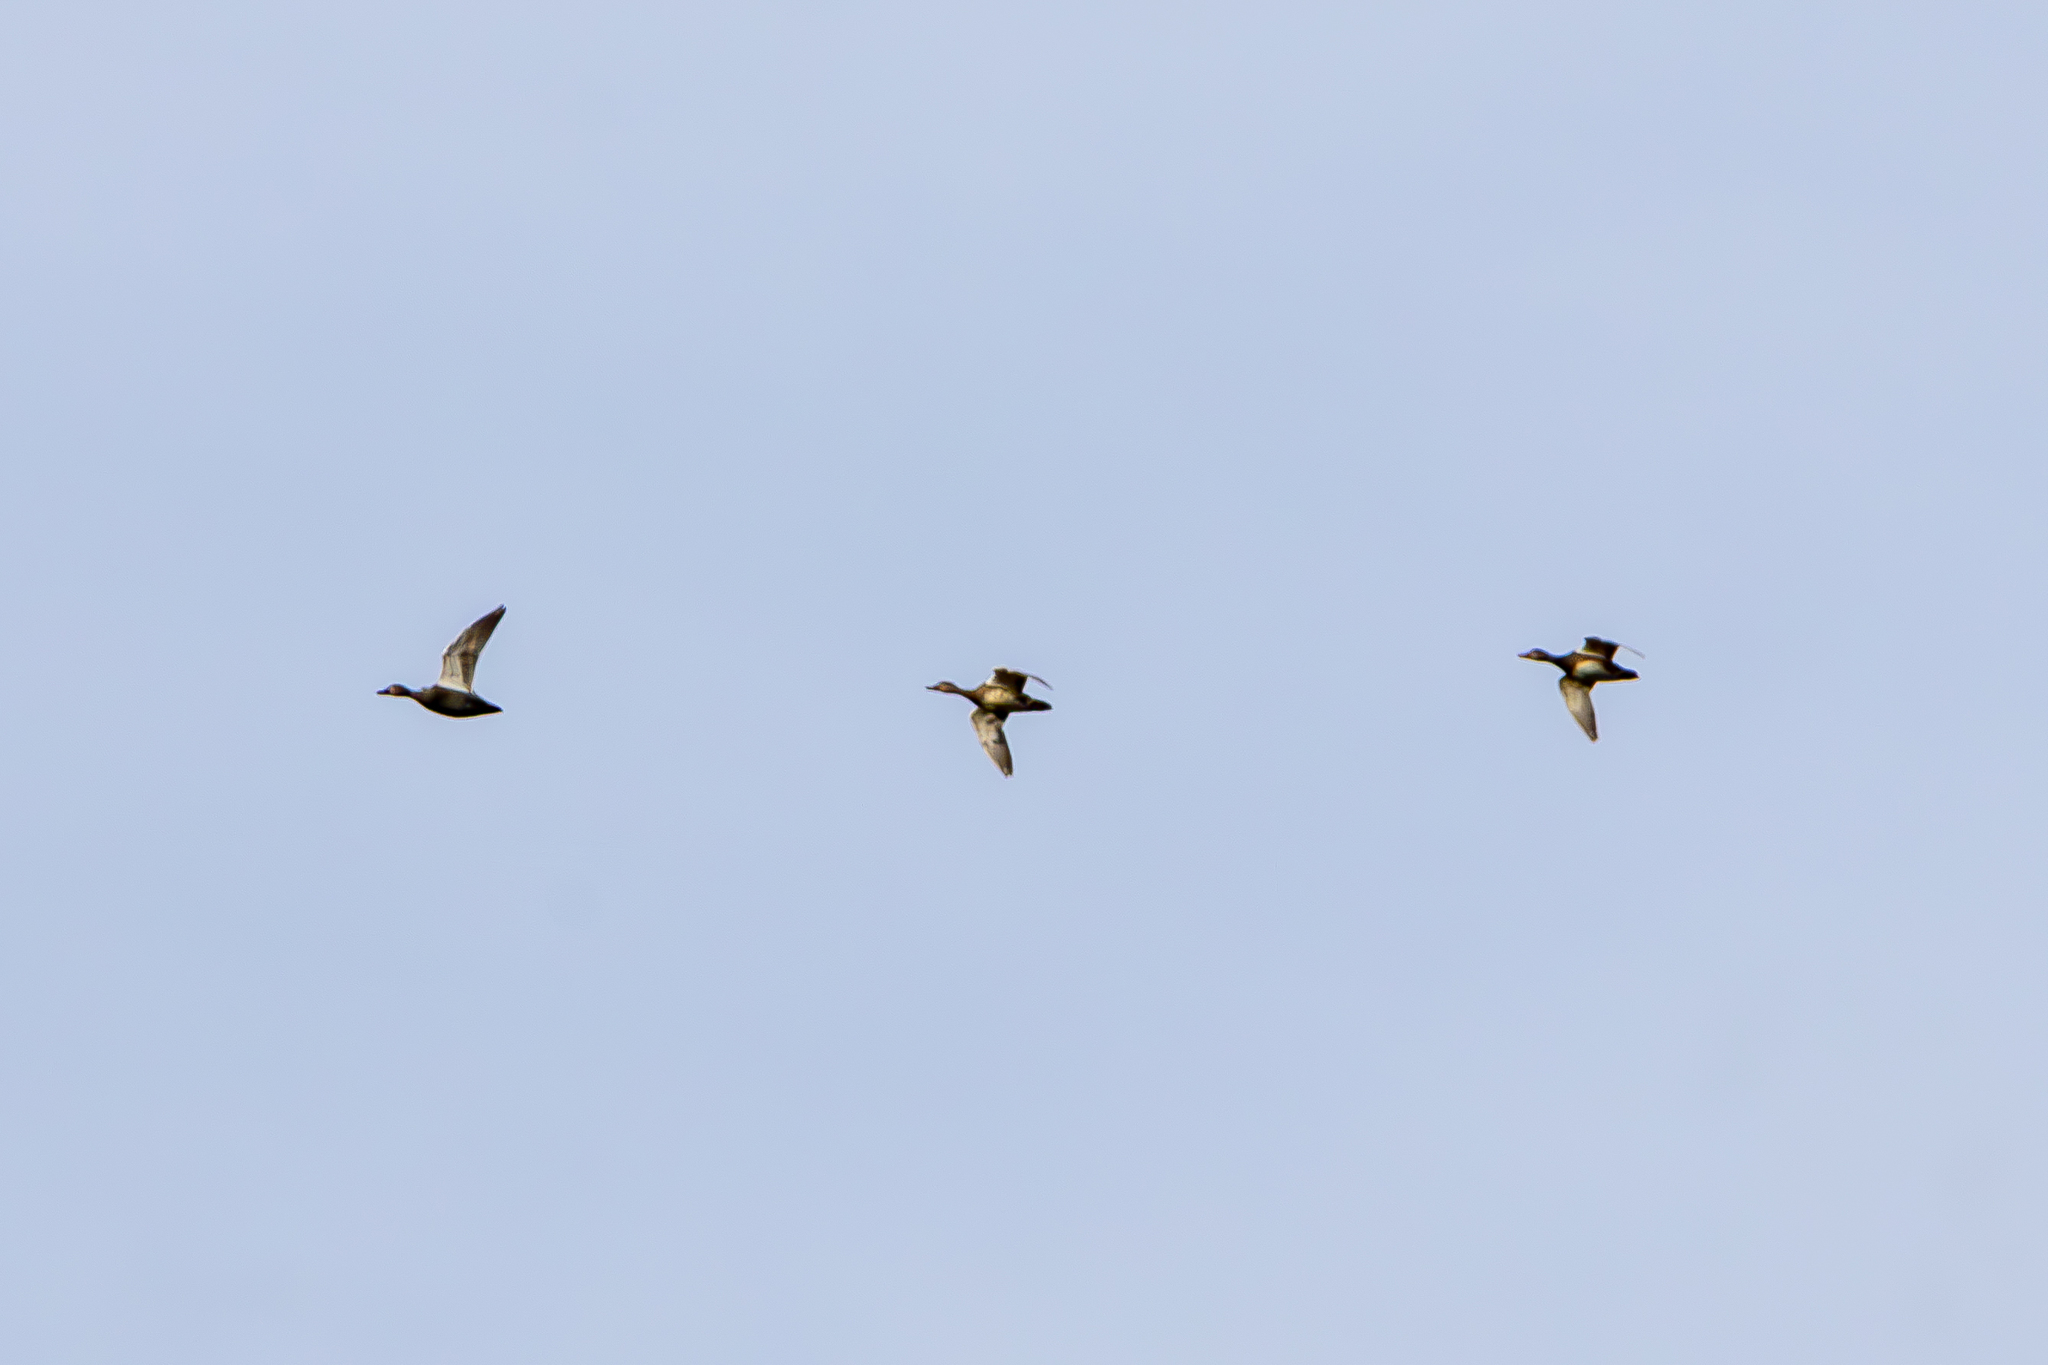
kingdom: Animalia
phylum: Chordata
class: Aves
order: Anseriformes
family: Anatidae
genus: Mareca
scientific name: Mareca strepera
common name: Gadwall
